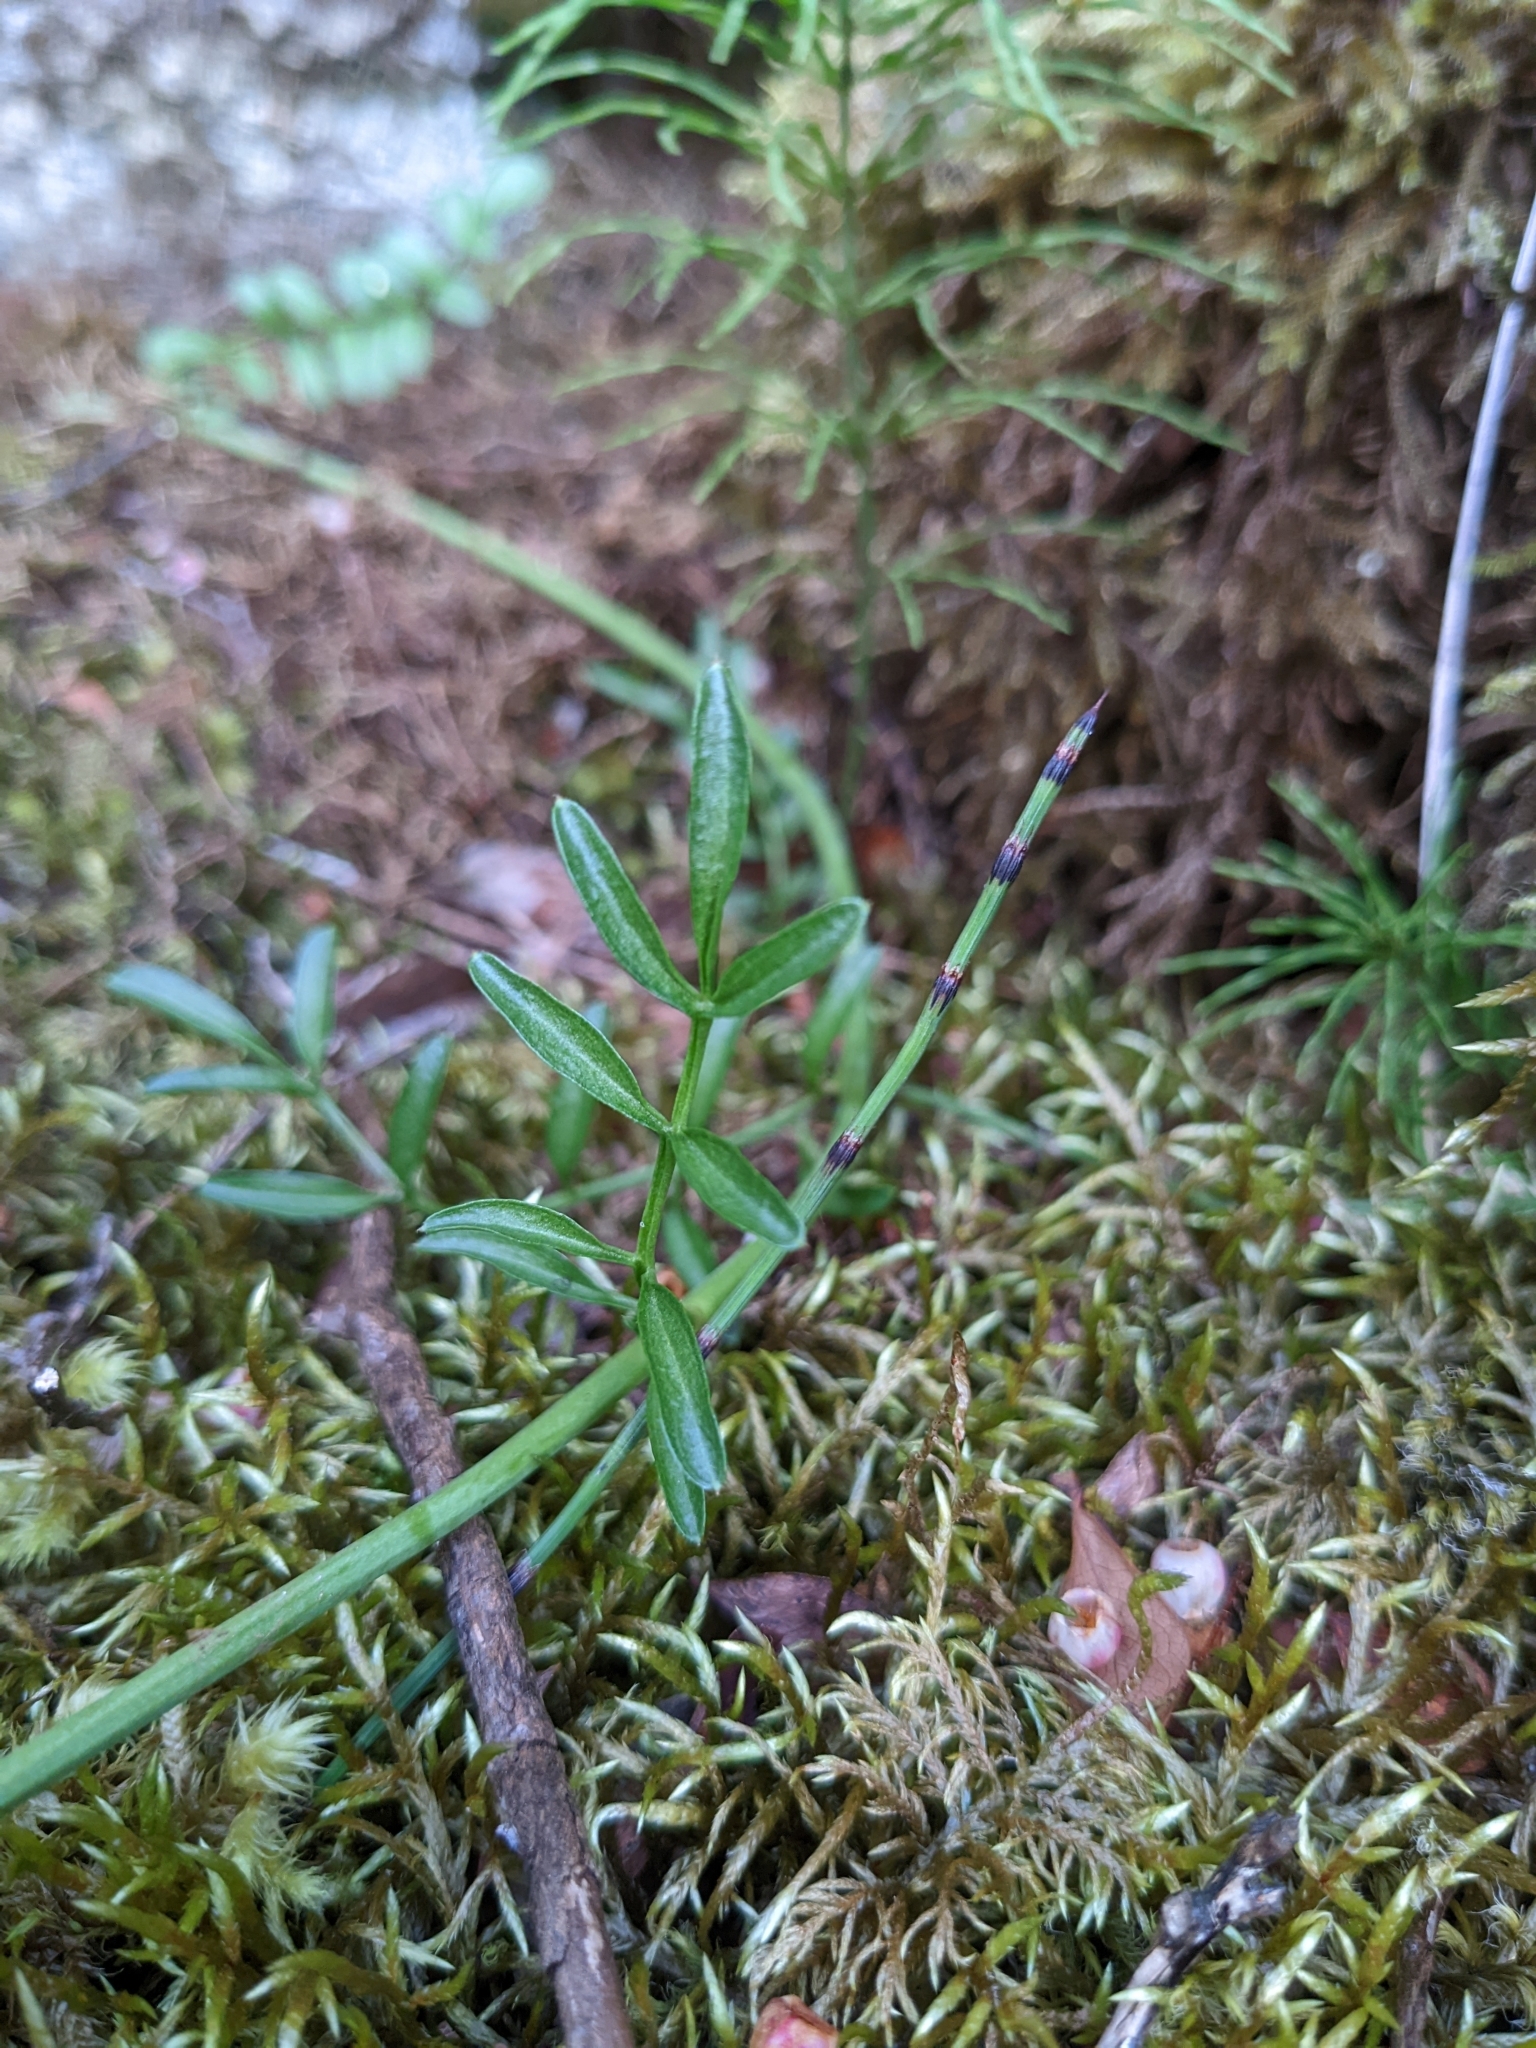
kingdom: Plantae
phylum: Tracheophyta
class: Magnoliopsida
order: Brassicales
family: Brassicaceae
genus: Cardamine
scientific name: Cardamine nymanii
